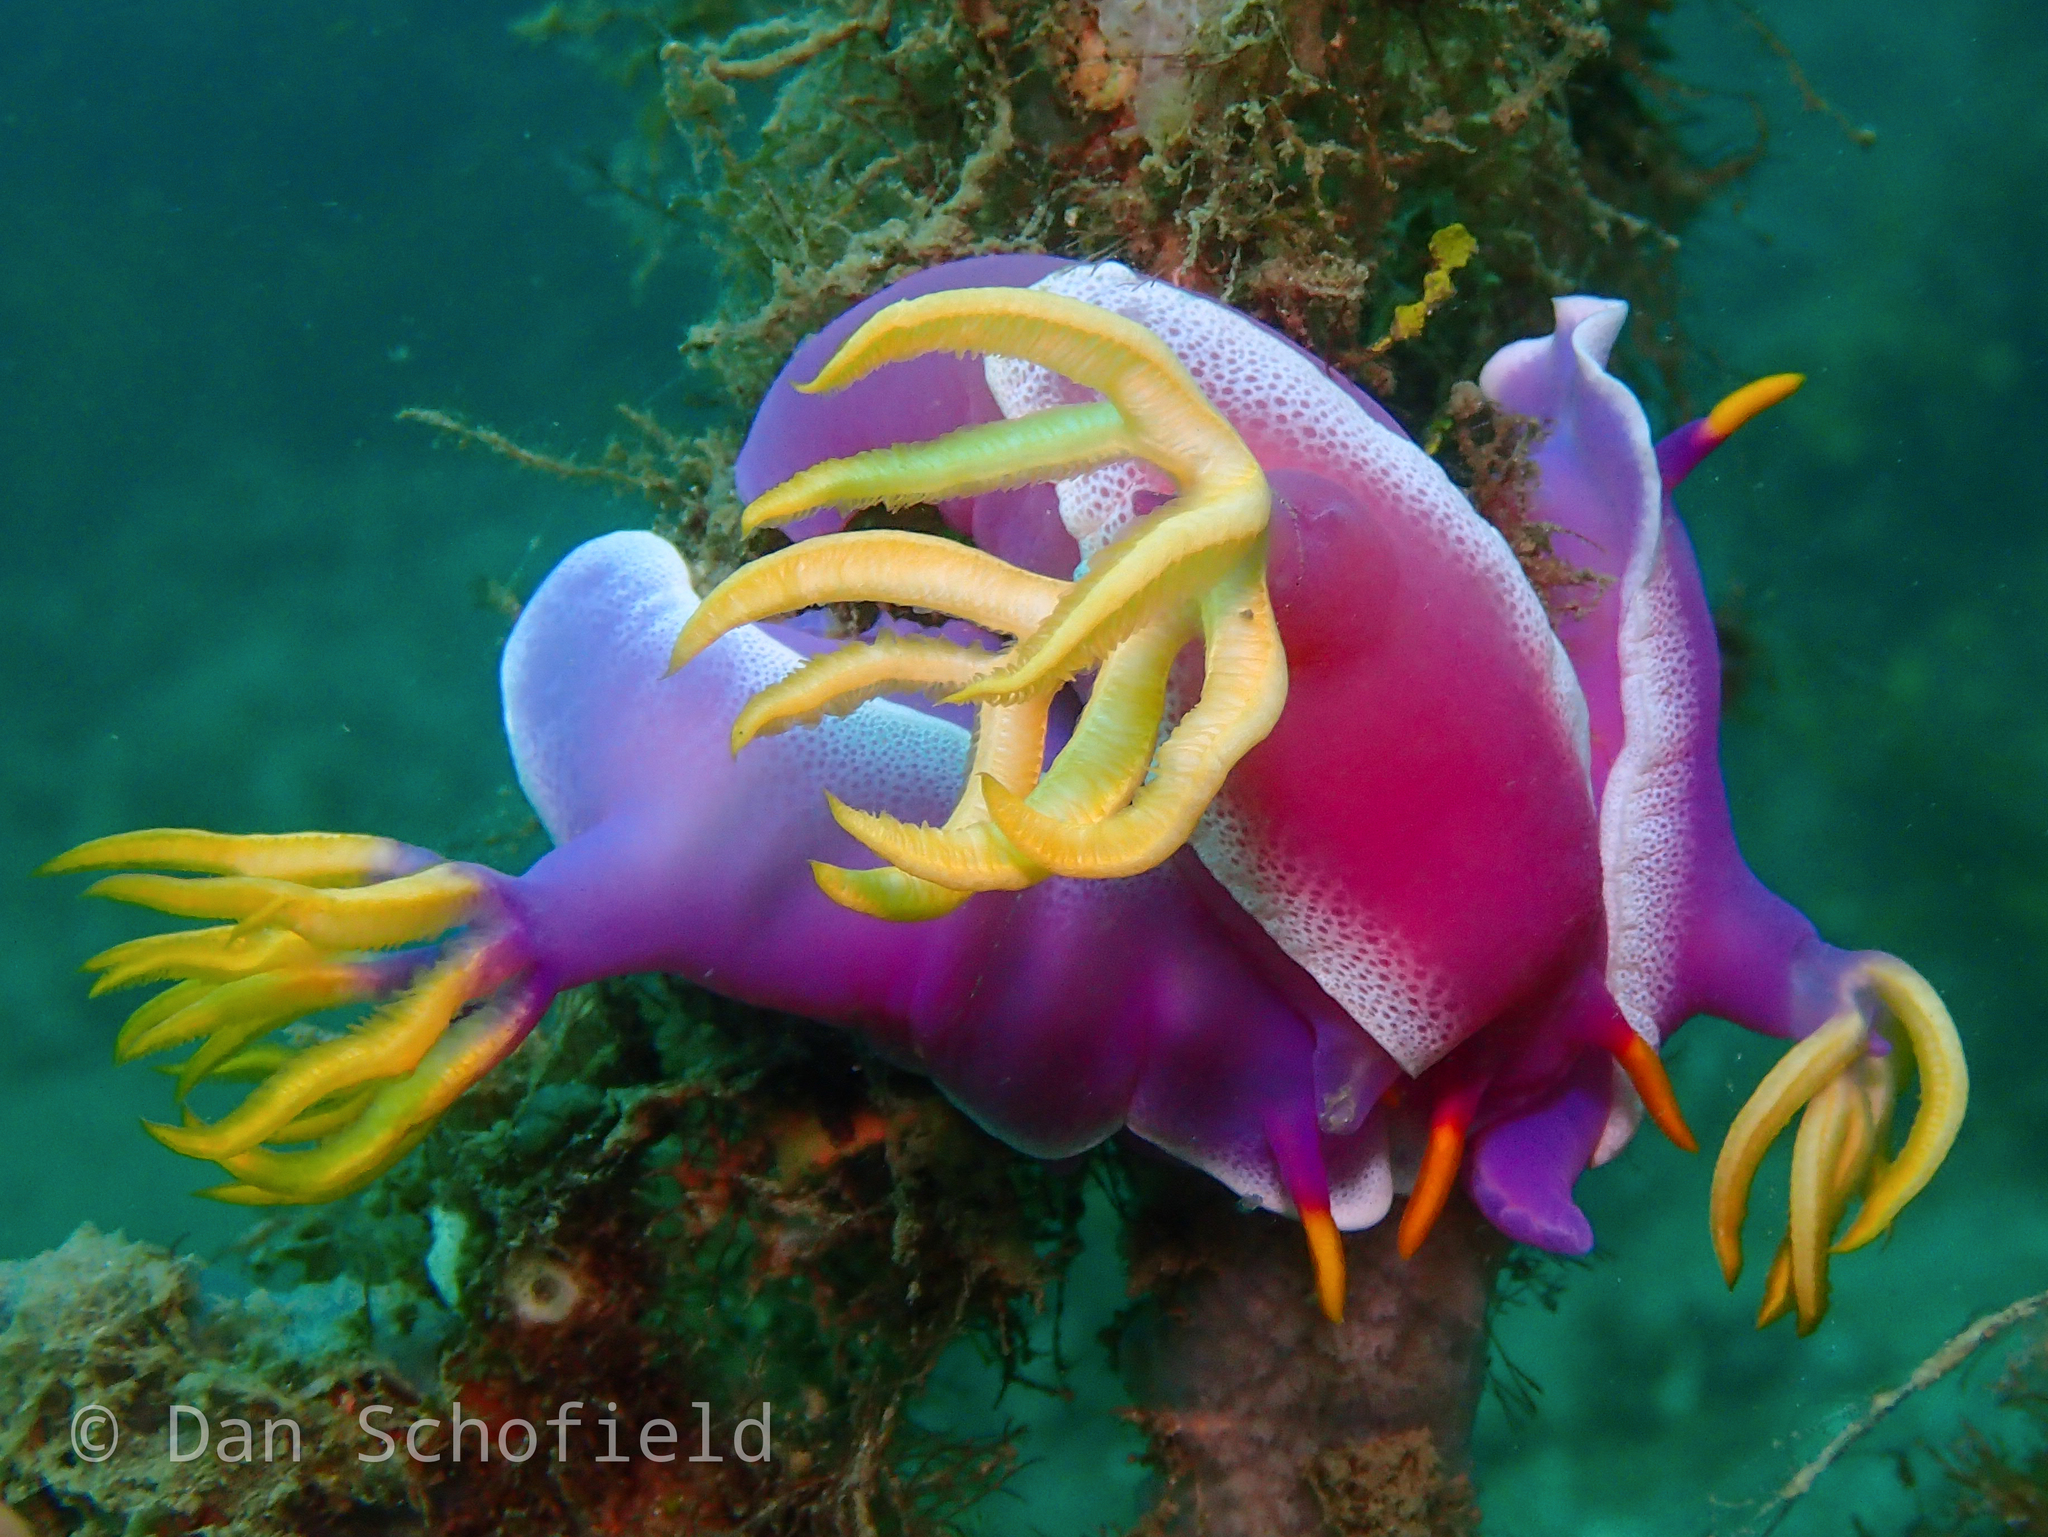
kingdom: Animalia
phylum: Mollusca
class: Gastropoda
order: Nudibranchia
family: Chromodorididae
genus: Hypselodoris
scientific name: Hypselodoris apolegma
